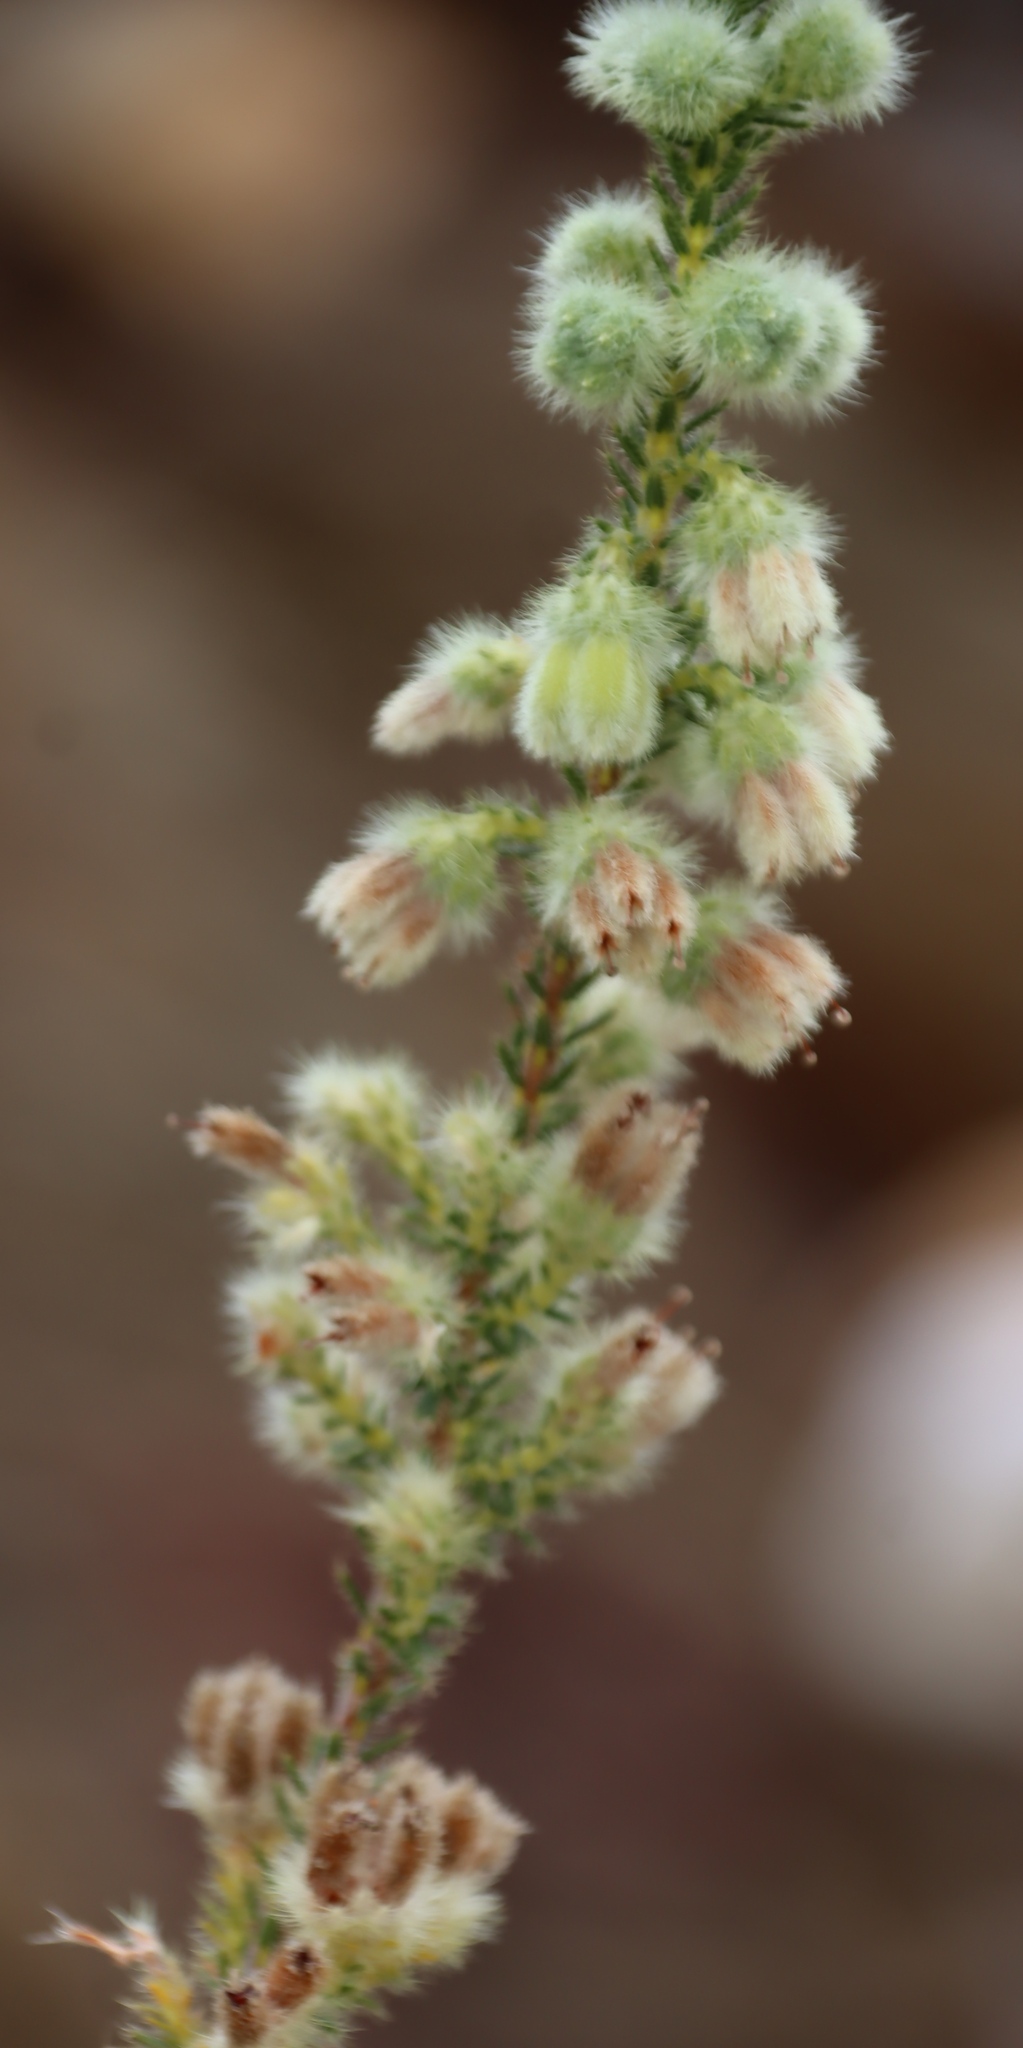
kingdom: Plantae
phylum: Tracheophyta
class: Magnoliopsida
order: Ericales
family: Ericaceae
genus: Erica
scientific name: Erica sparmannii
